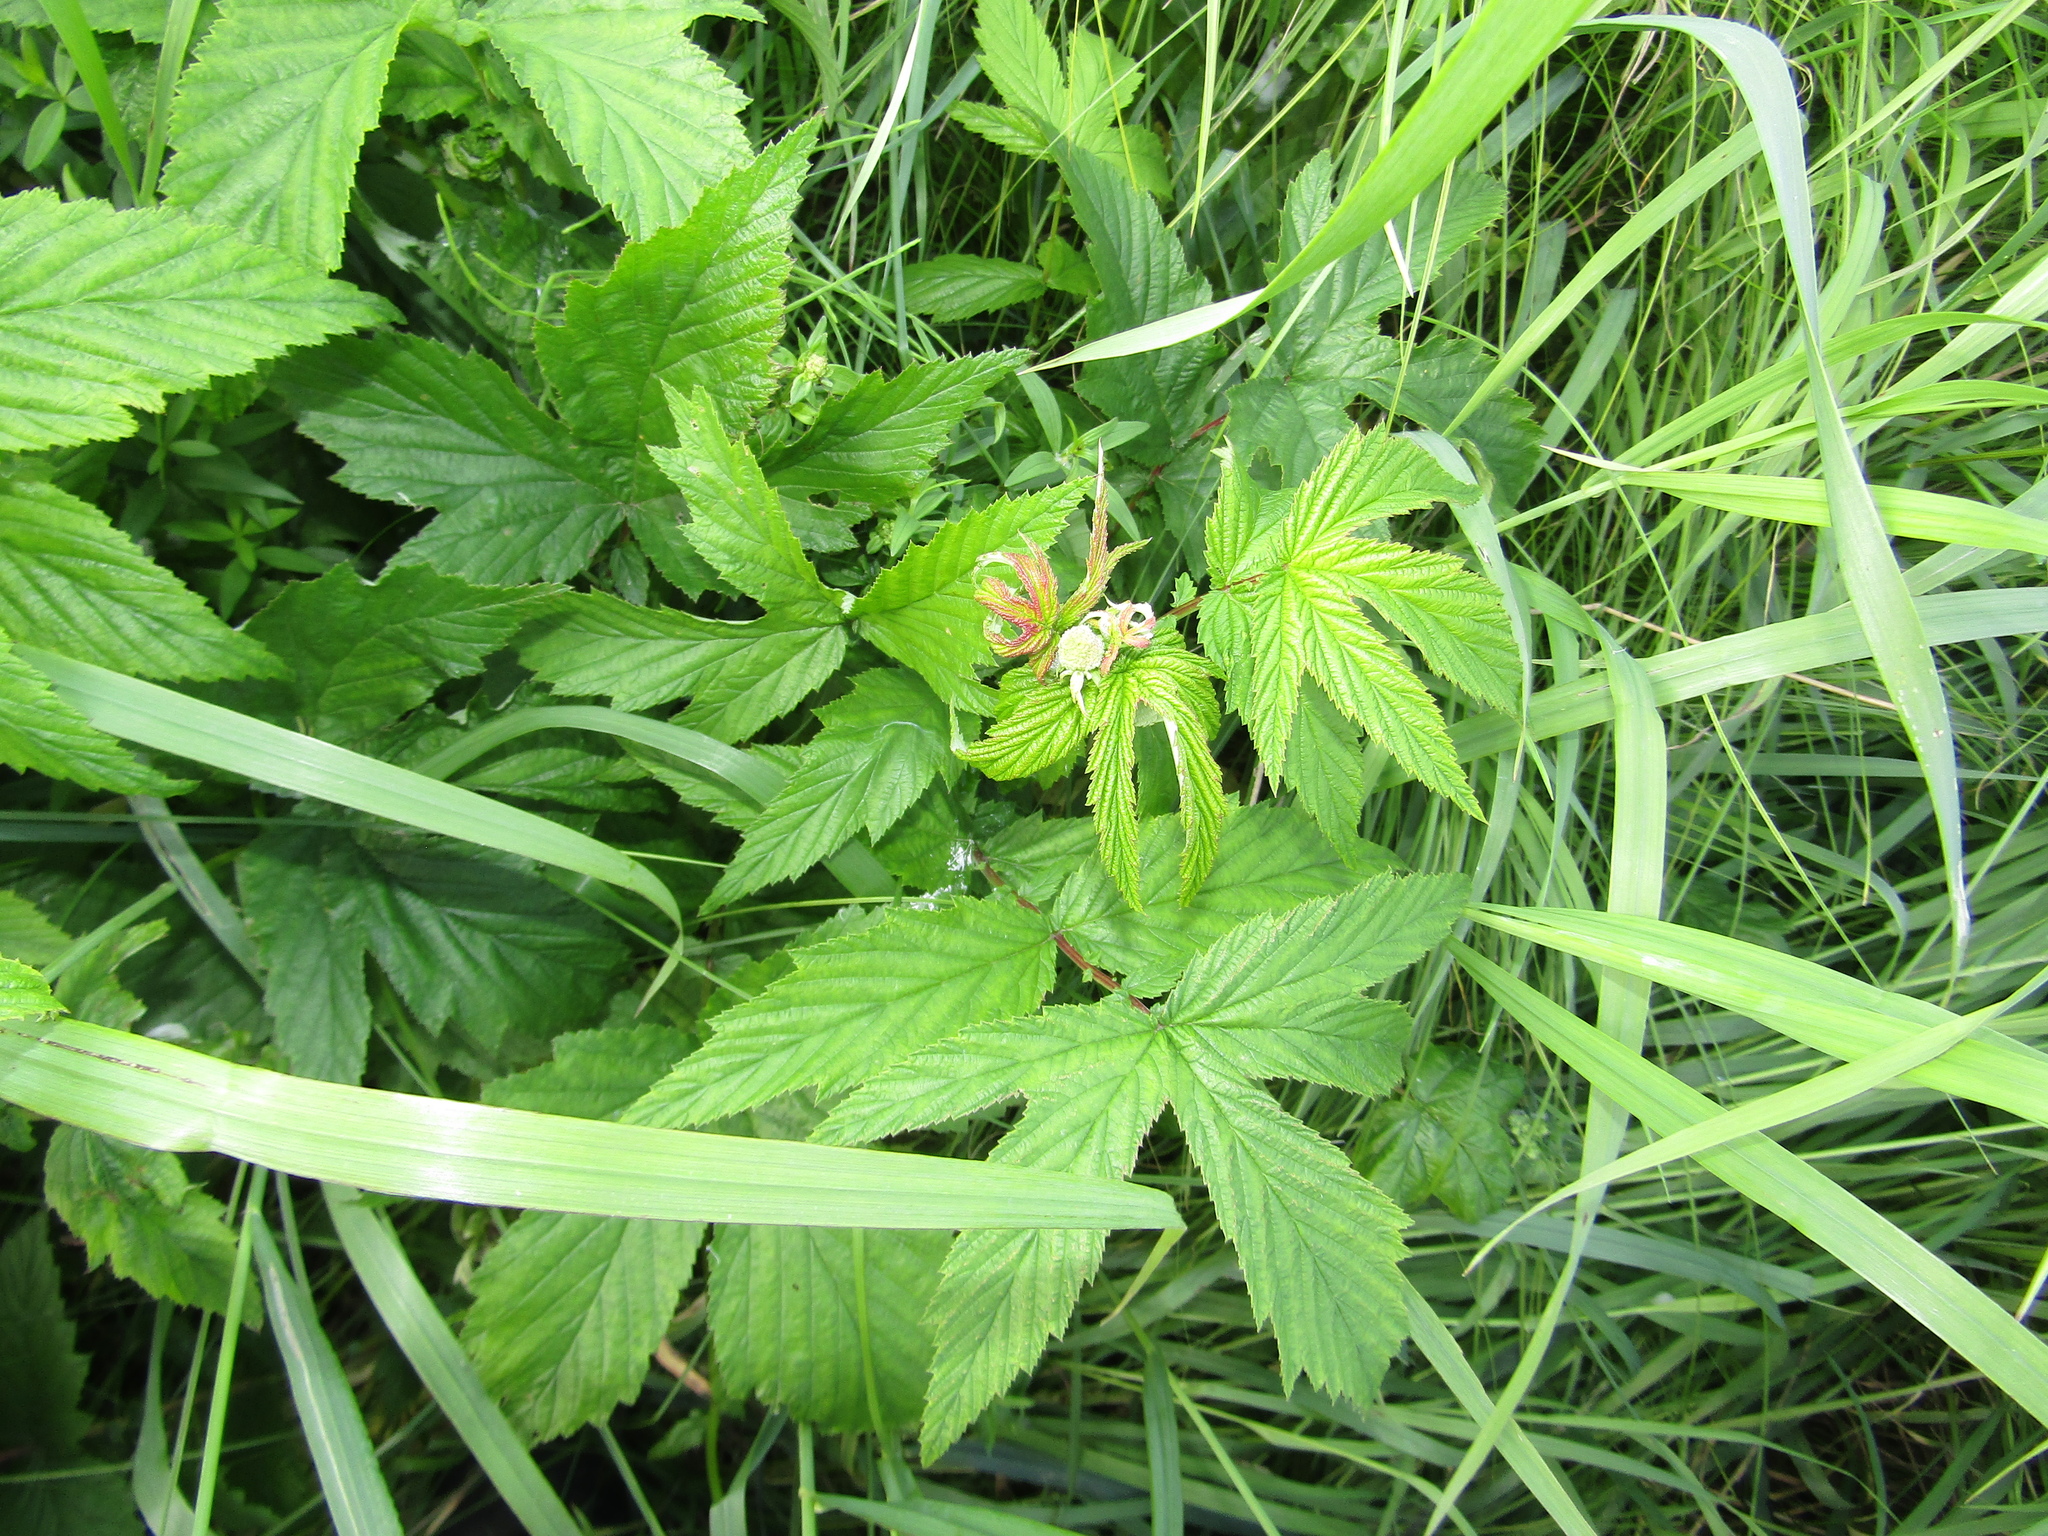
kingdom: Plantae
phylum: Tracheophyta
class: Magnoliopsida
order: Rosales
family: Rosaceae
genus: Filipendula
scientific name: Filipendula ulmaria
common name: Meadowsweet
